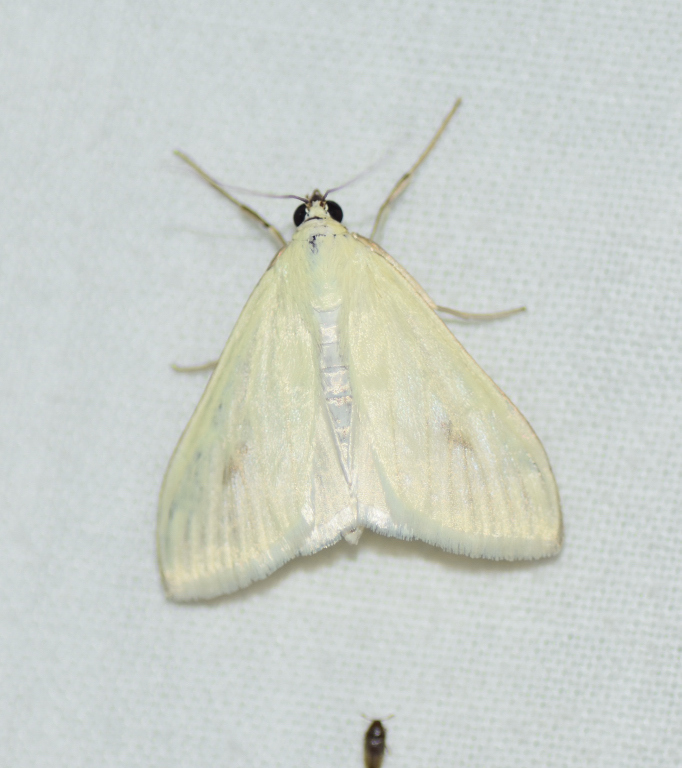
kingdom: Animalia
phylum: Arthropoda
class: Insecta
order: Lepidoptera
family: Crambidae
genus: Sitochroa
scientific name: Sitochroa palealis
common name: Greenish-yellow sitochroa moth
